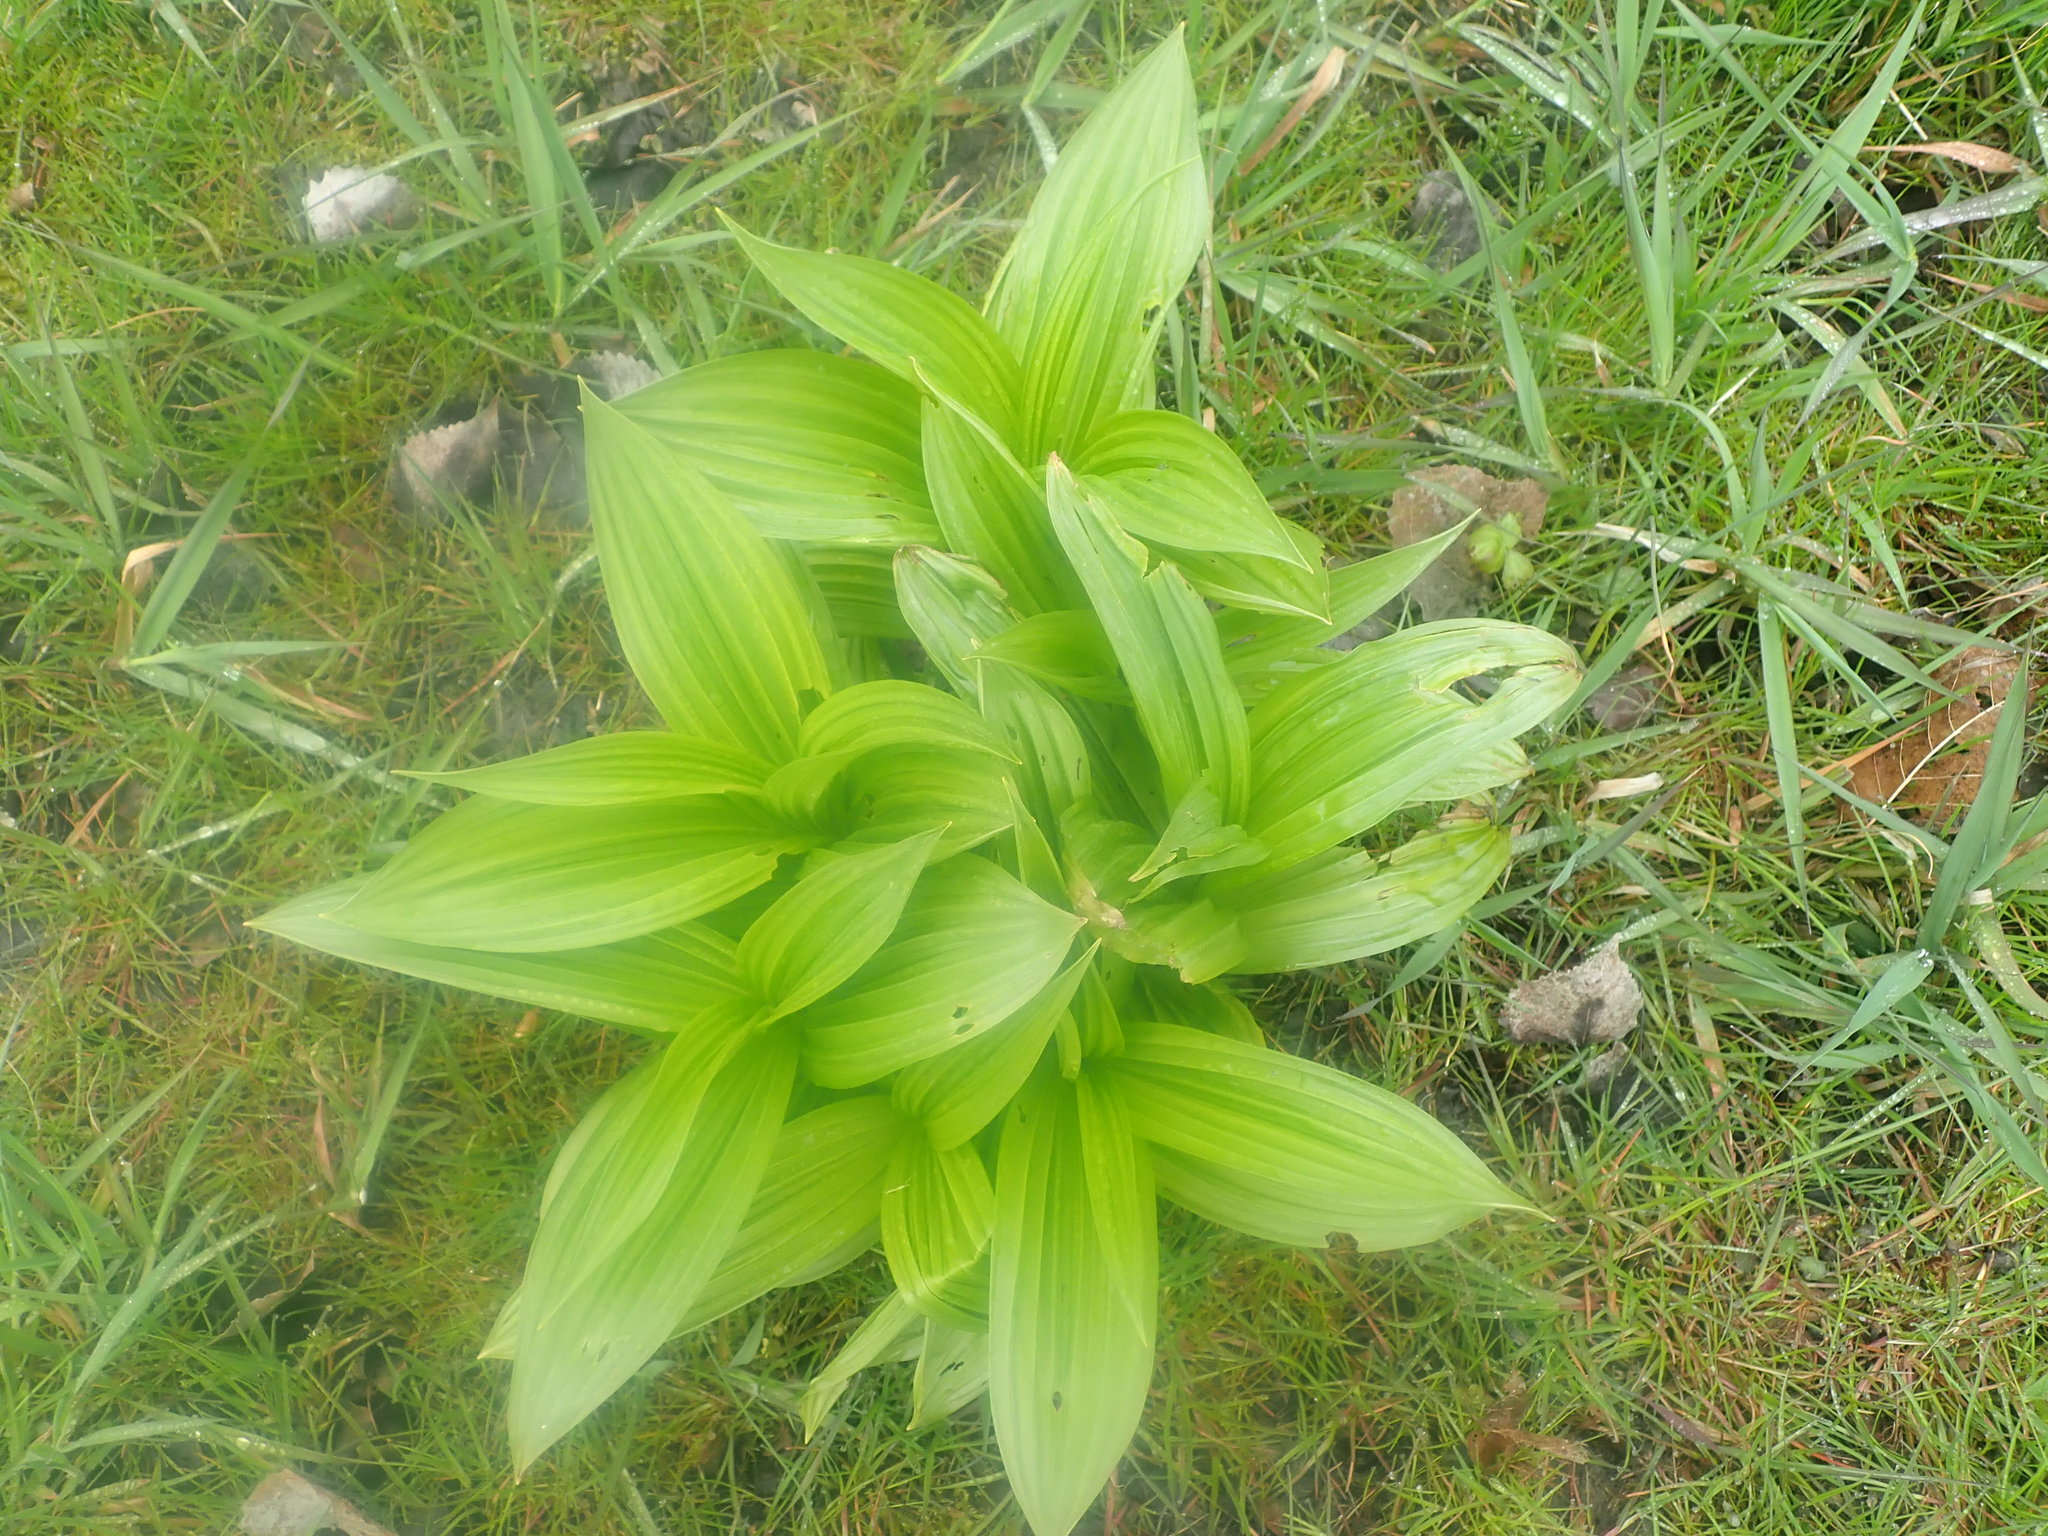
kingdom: Plantae
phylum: Tracheophyta
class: Liliopsida
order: Liliales
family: Melanthiaceae
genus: Veratrum
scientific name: Veratrum viride
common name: American false hellebore
